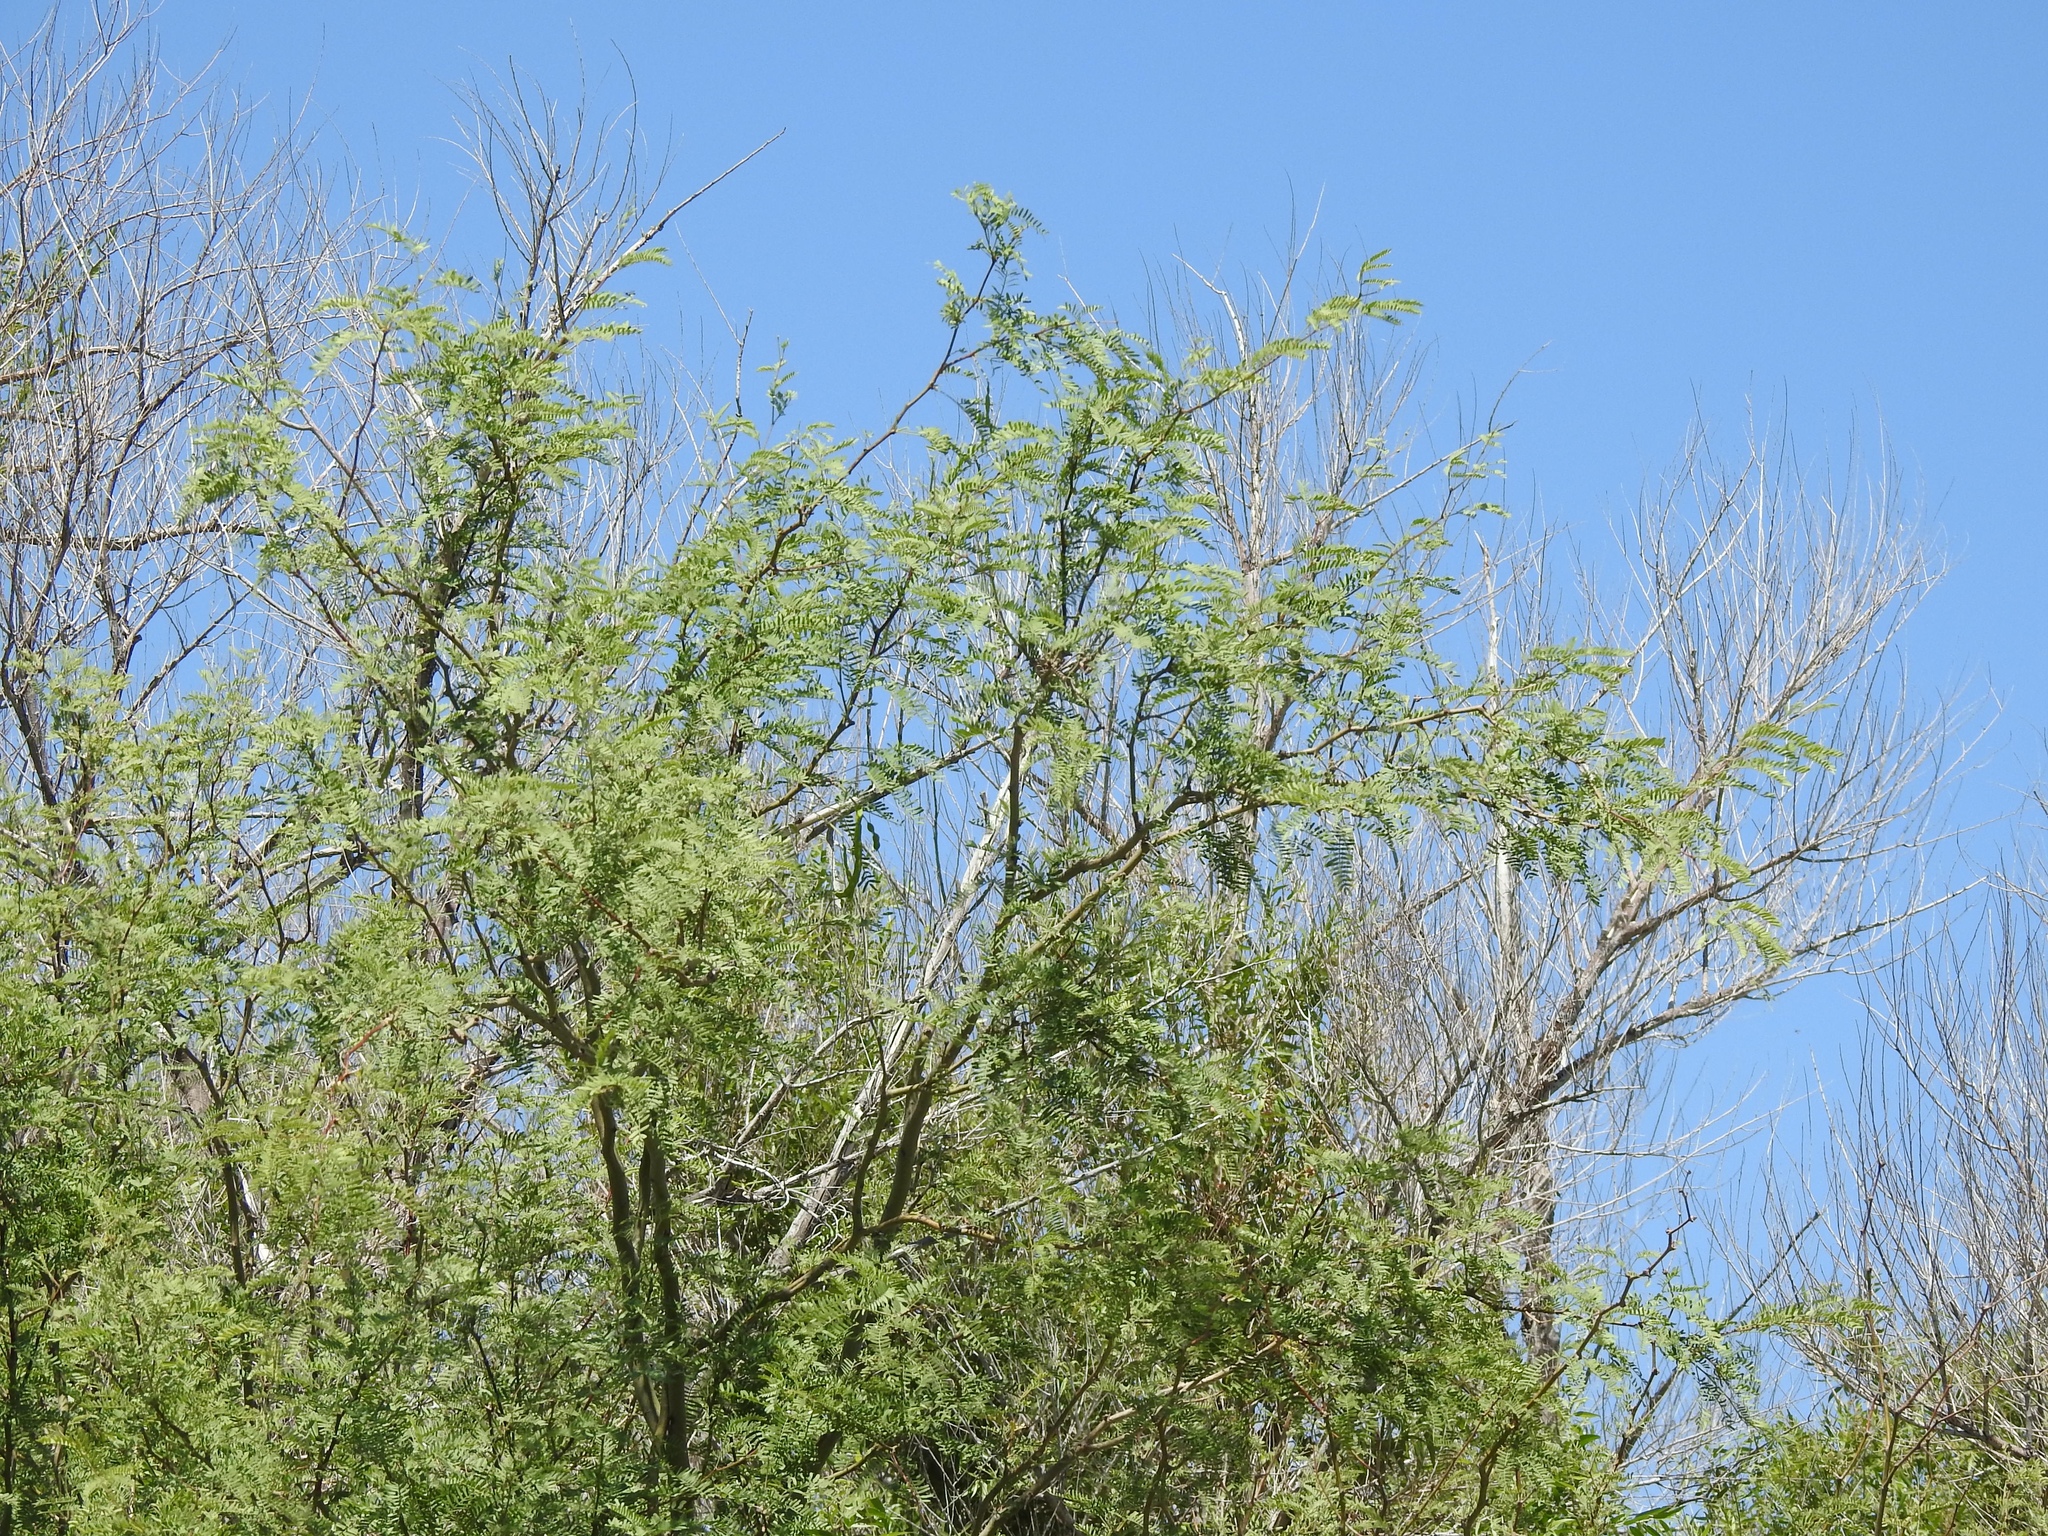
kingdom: Plantae
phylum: Tracheophyta
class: Magnoliopsida
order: Fabales
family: Fabaceae
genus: Prosopis
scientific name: Prosopis pubescens
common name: Screw-bean
